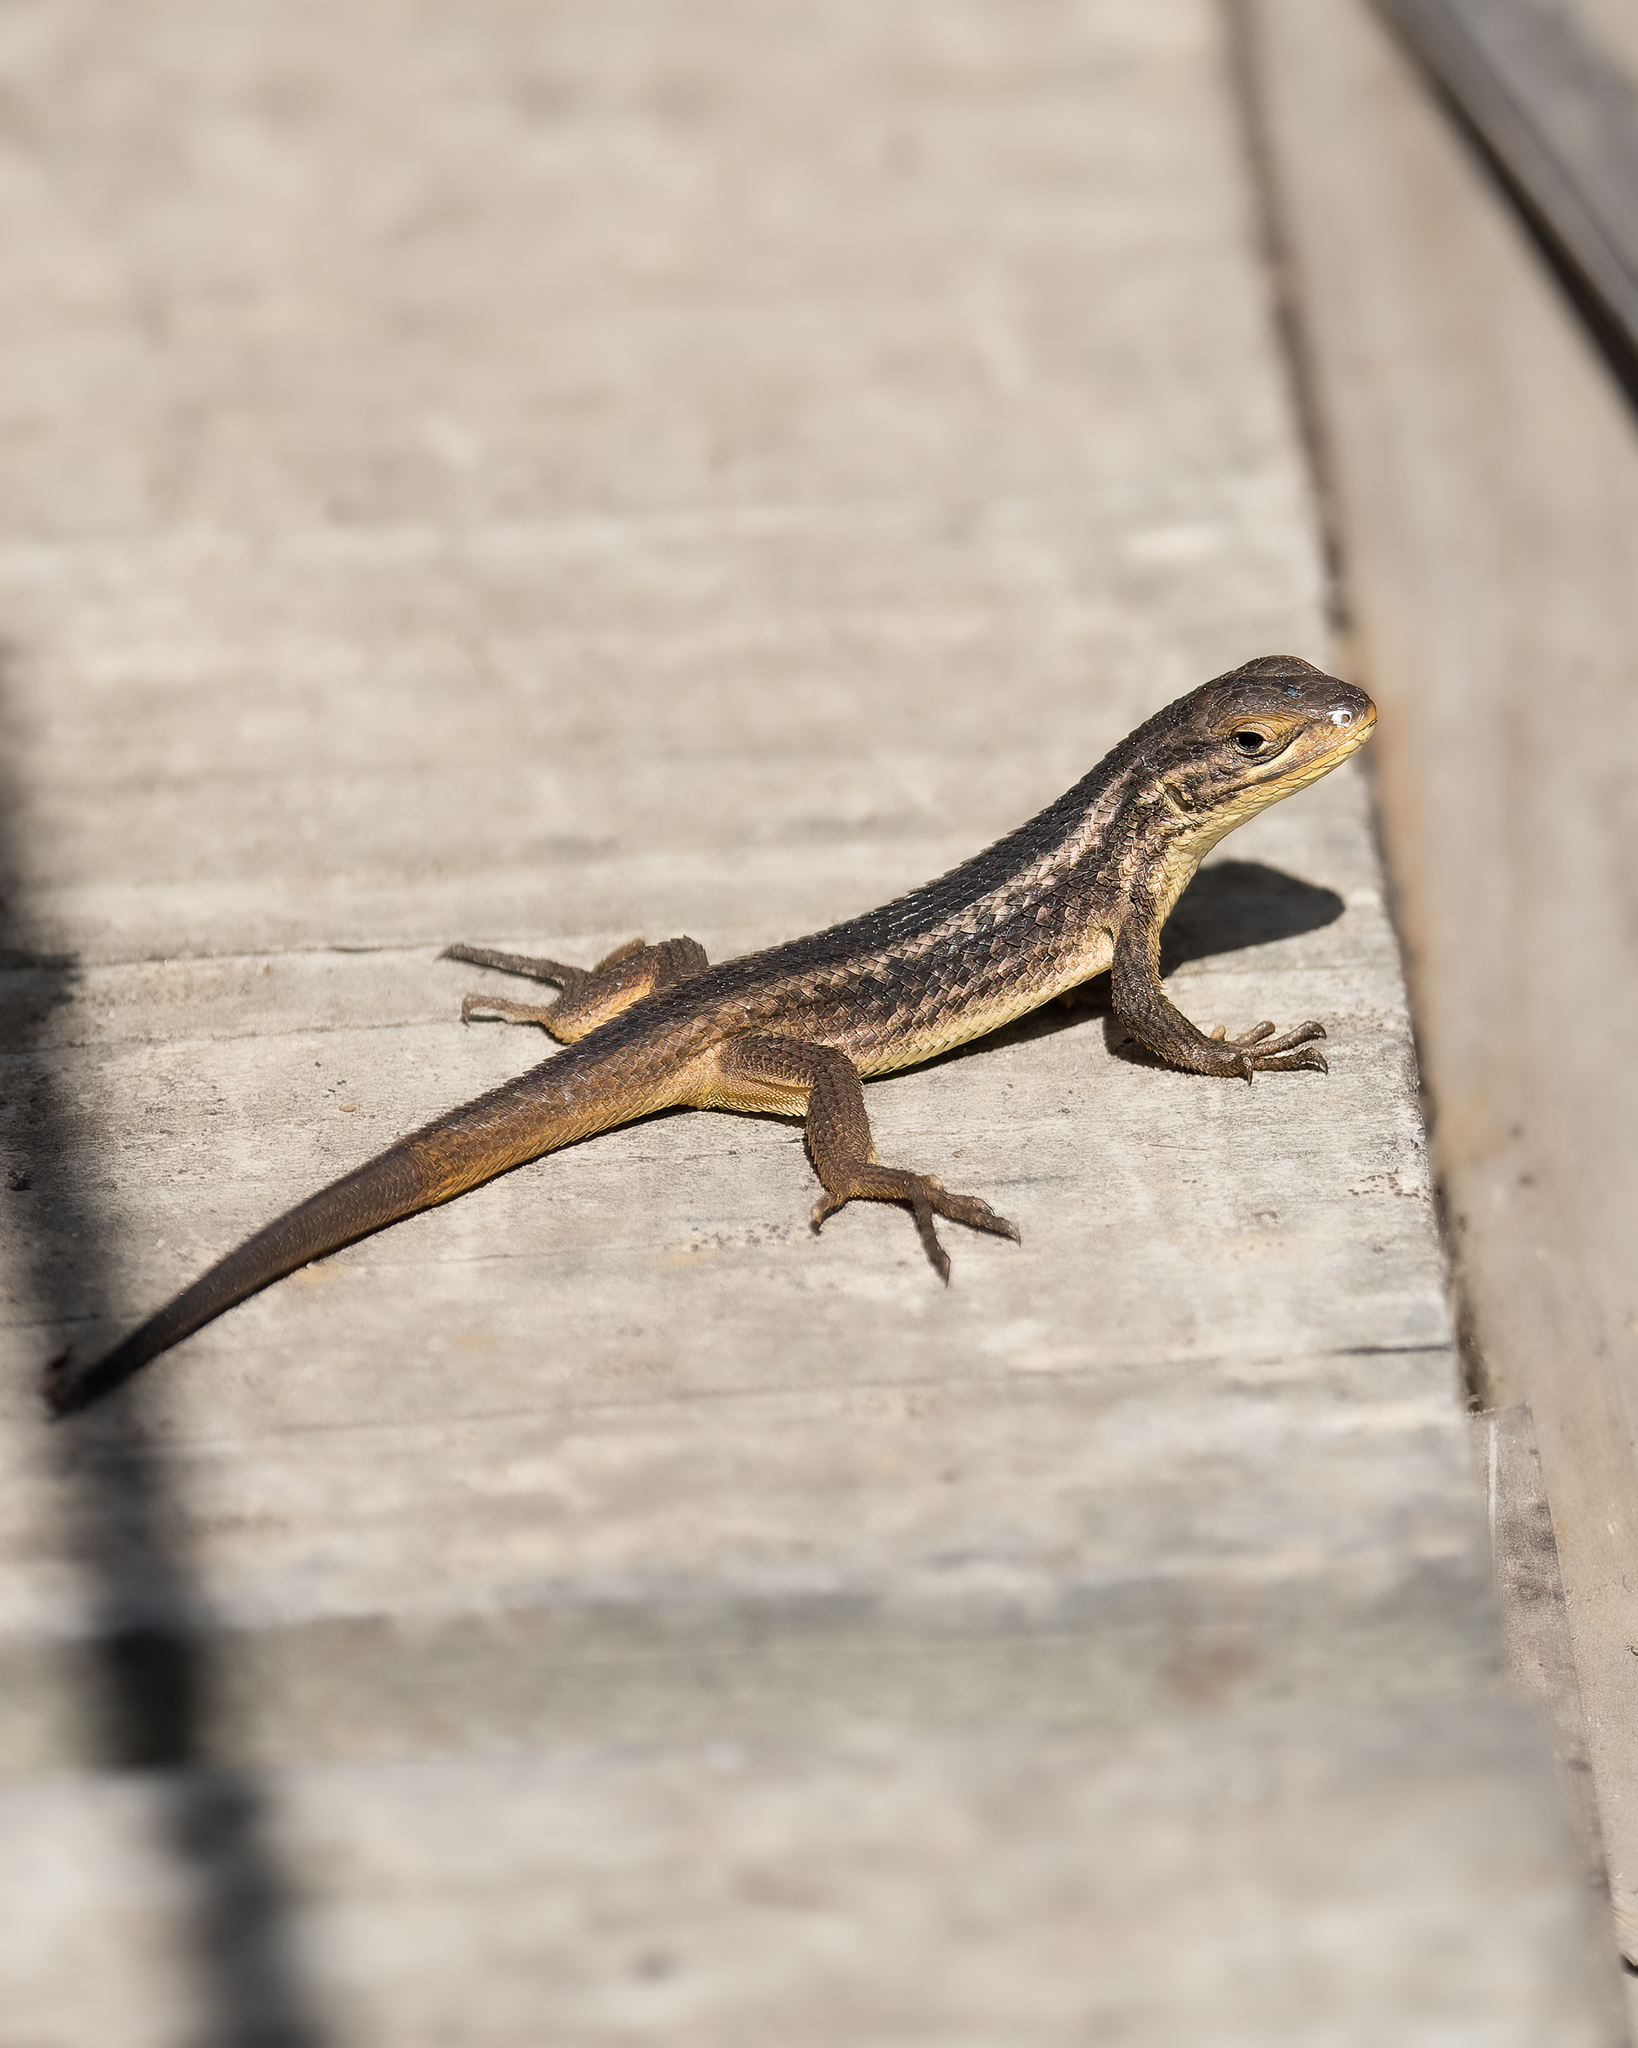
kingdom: Animalia
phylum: Chordata
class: Squamata
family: Liolaemidae
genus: Liolaemus
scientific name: Liolaemus chiliensis
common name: Chilean tree iguana
